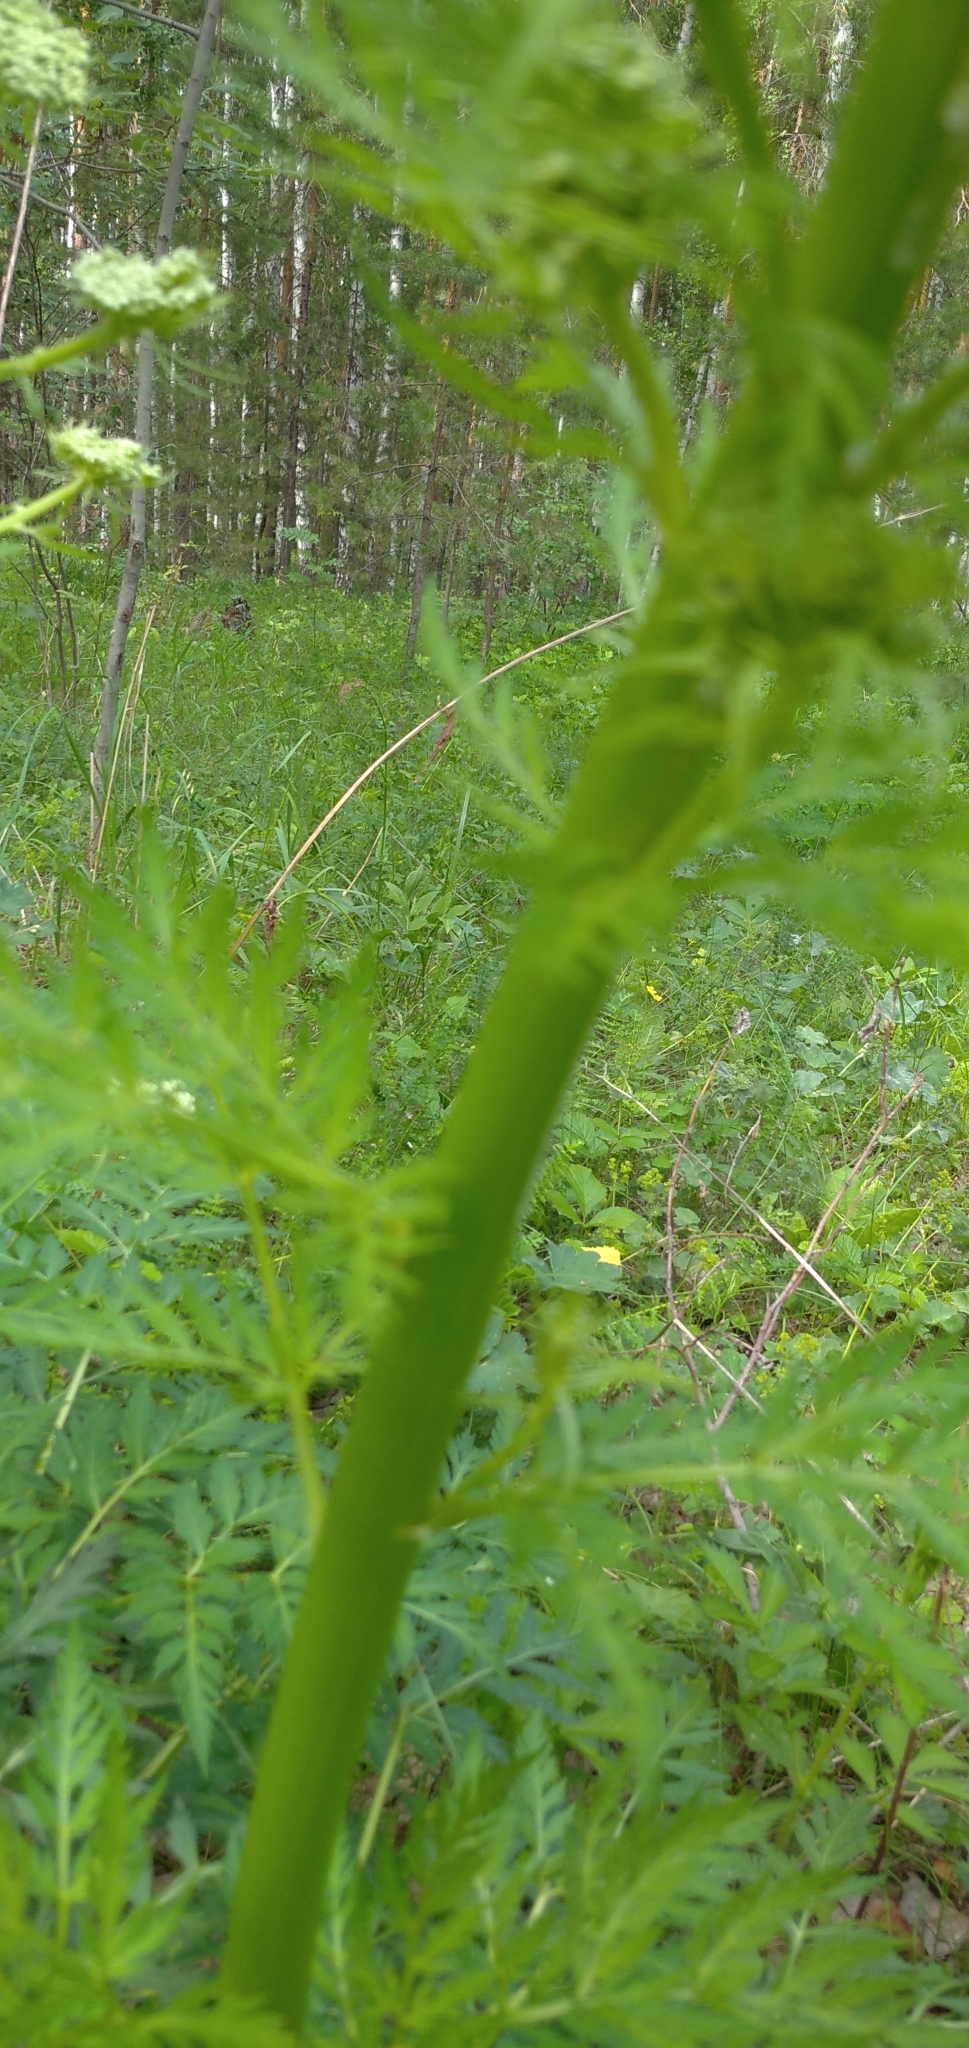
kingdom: Plantae
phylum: Tracheophyta
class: Magnoliopsida
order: Apiales
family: Apiaceae
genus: Pleurospermum
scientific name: Pleurospermum uralense
